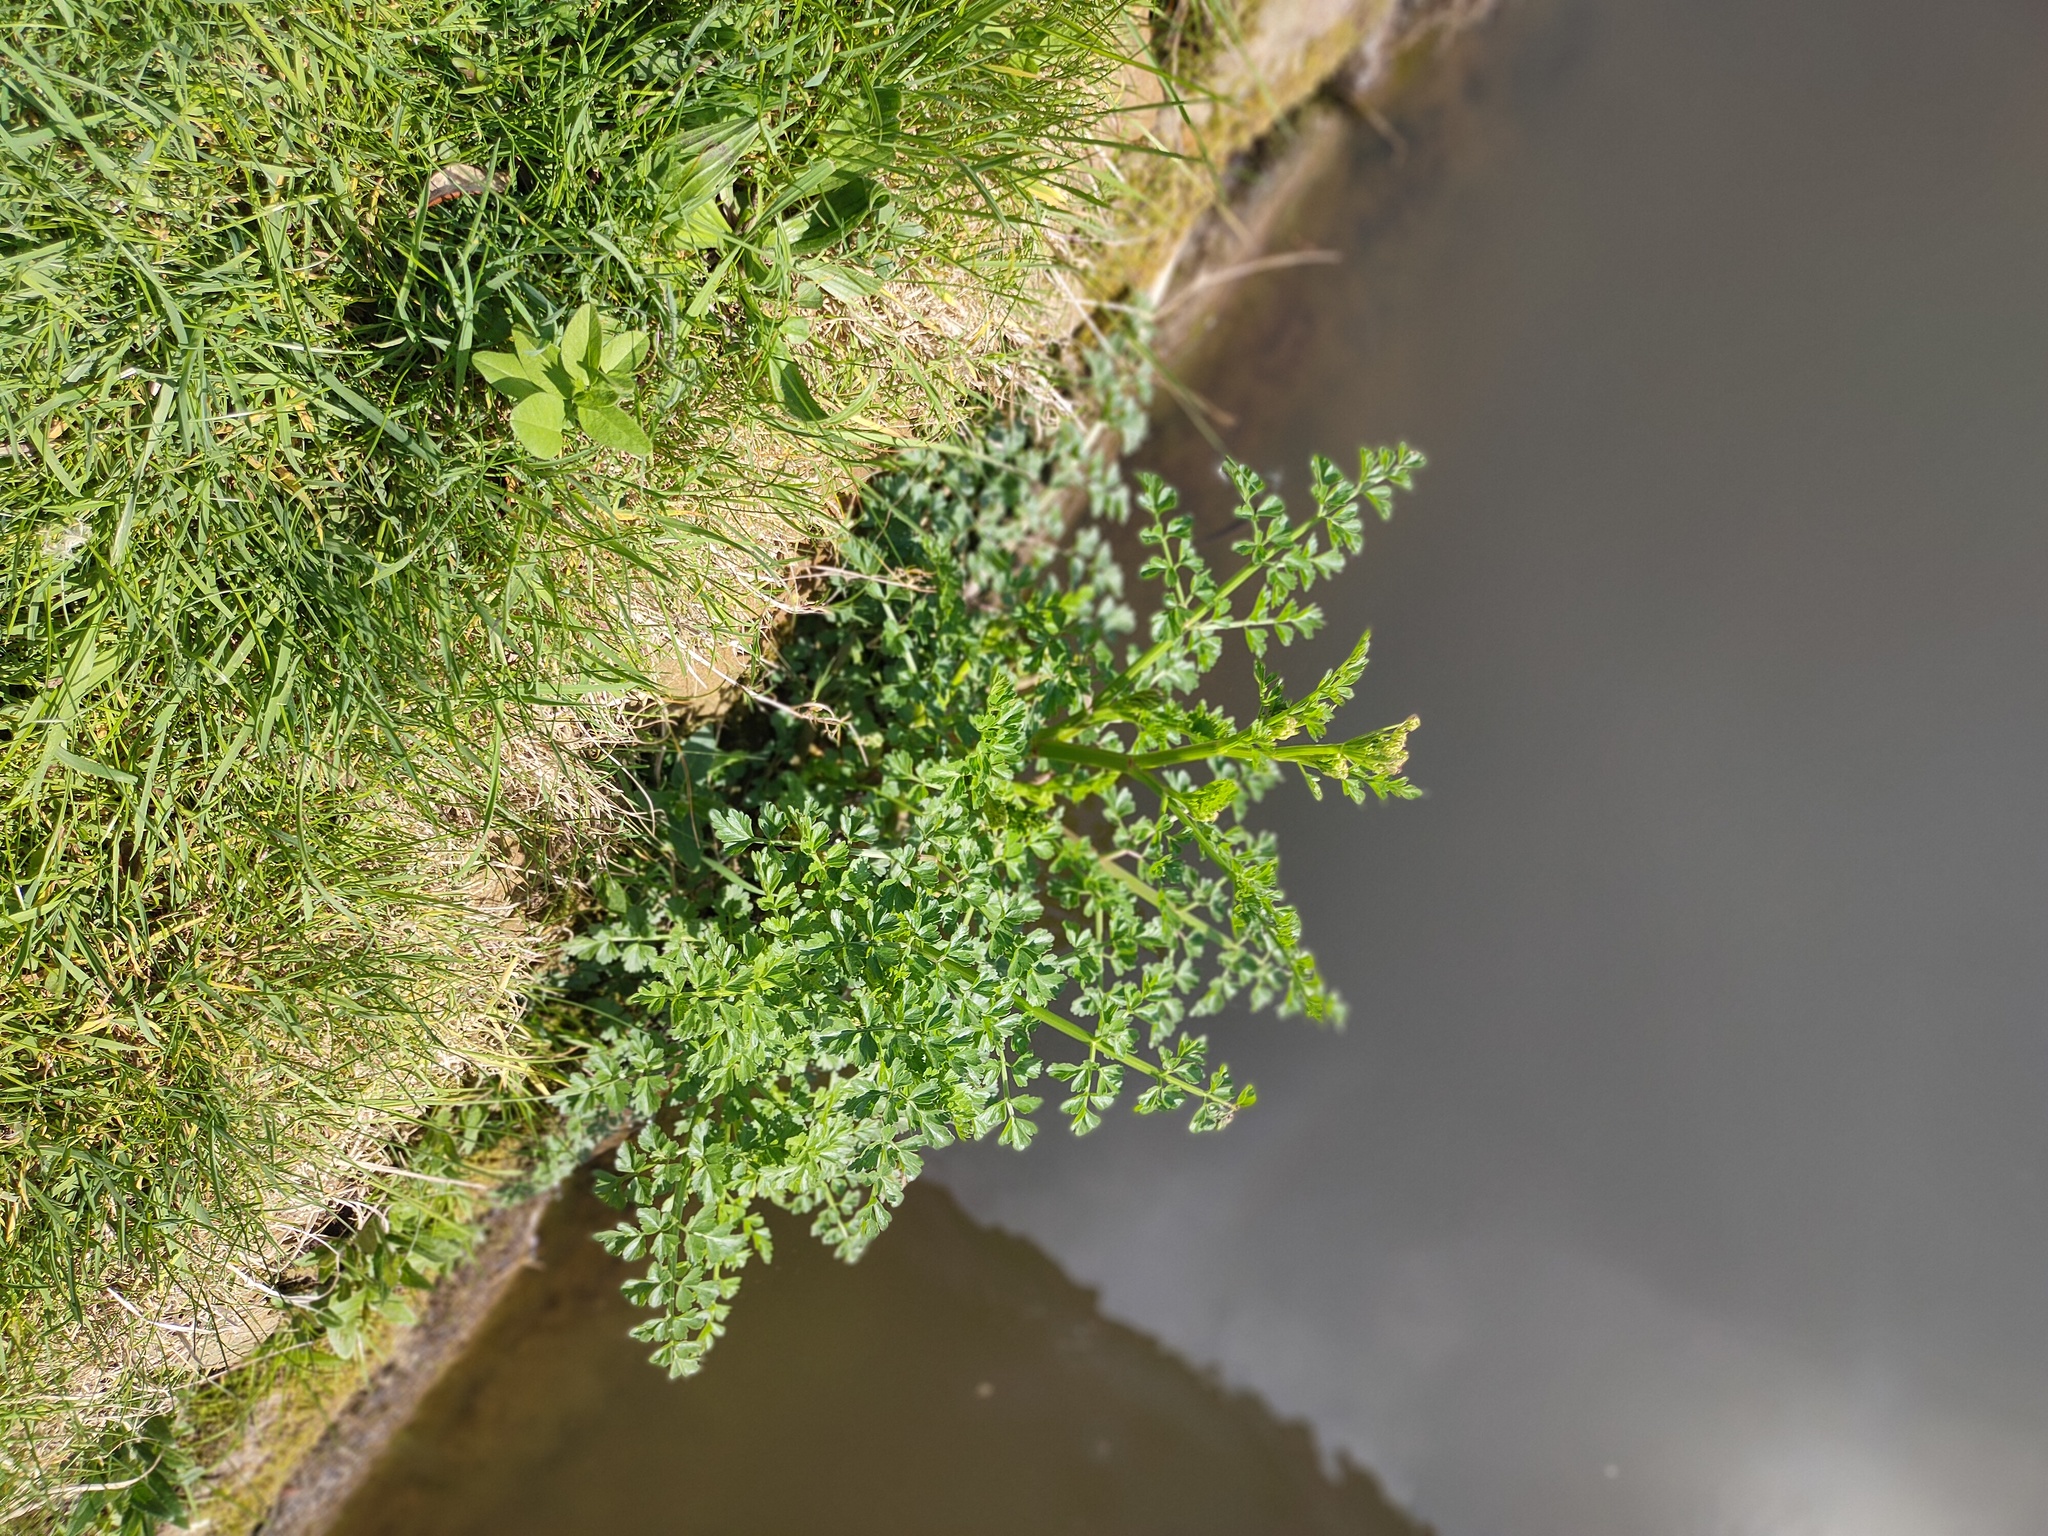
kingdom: Plantae
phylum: Tracheophyta
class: Magnoliopsida
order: Apiales
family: Apiaceae
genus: Oenanthe
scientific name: Oenanthe crocata
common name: Hemlock water-dropwort
